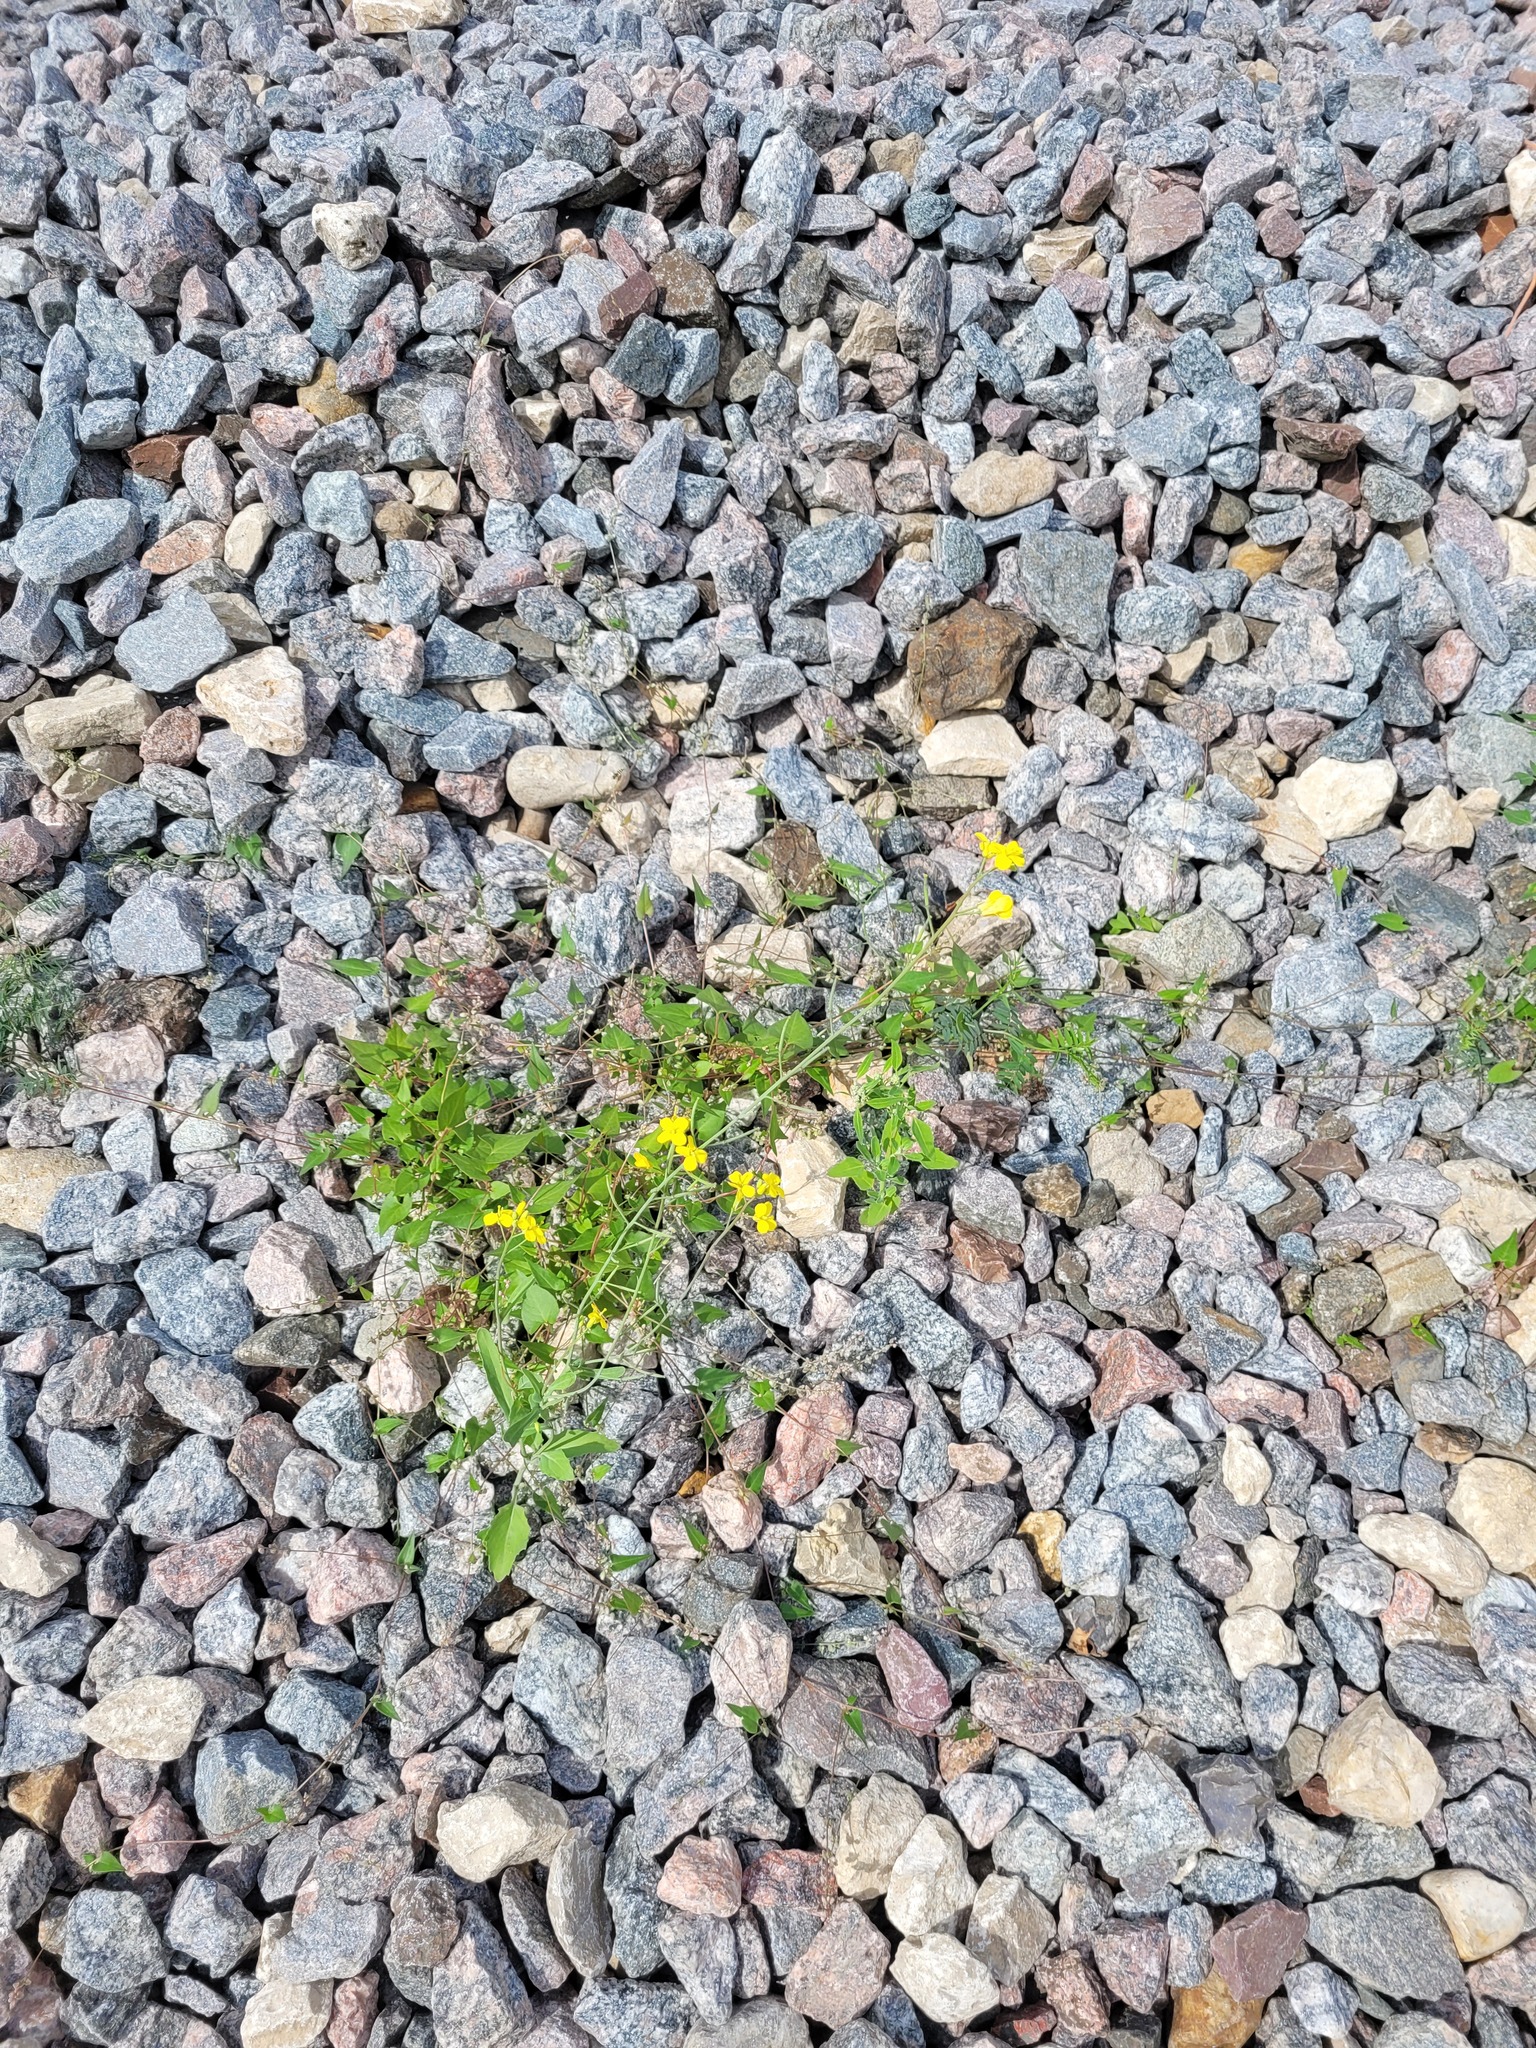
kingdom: Plantae
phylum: Tracheophyta
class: Magnoliopsida
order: Brassicales
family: Brassicaceae
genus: Brassica
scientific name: Brassica napus
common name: Rape
